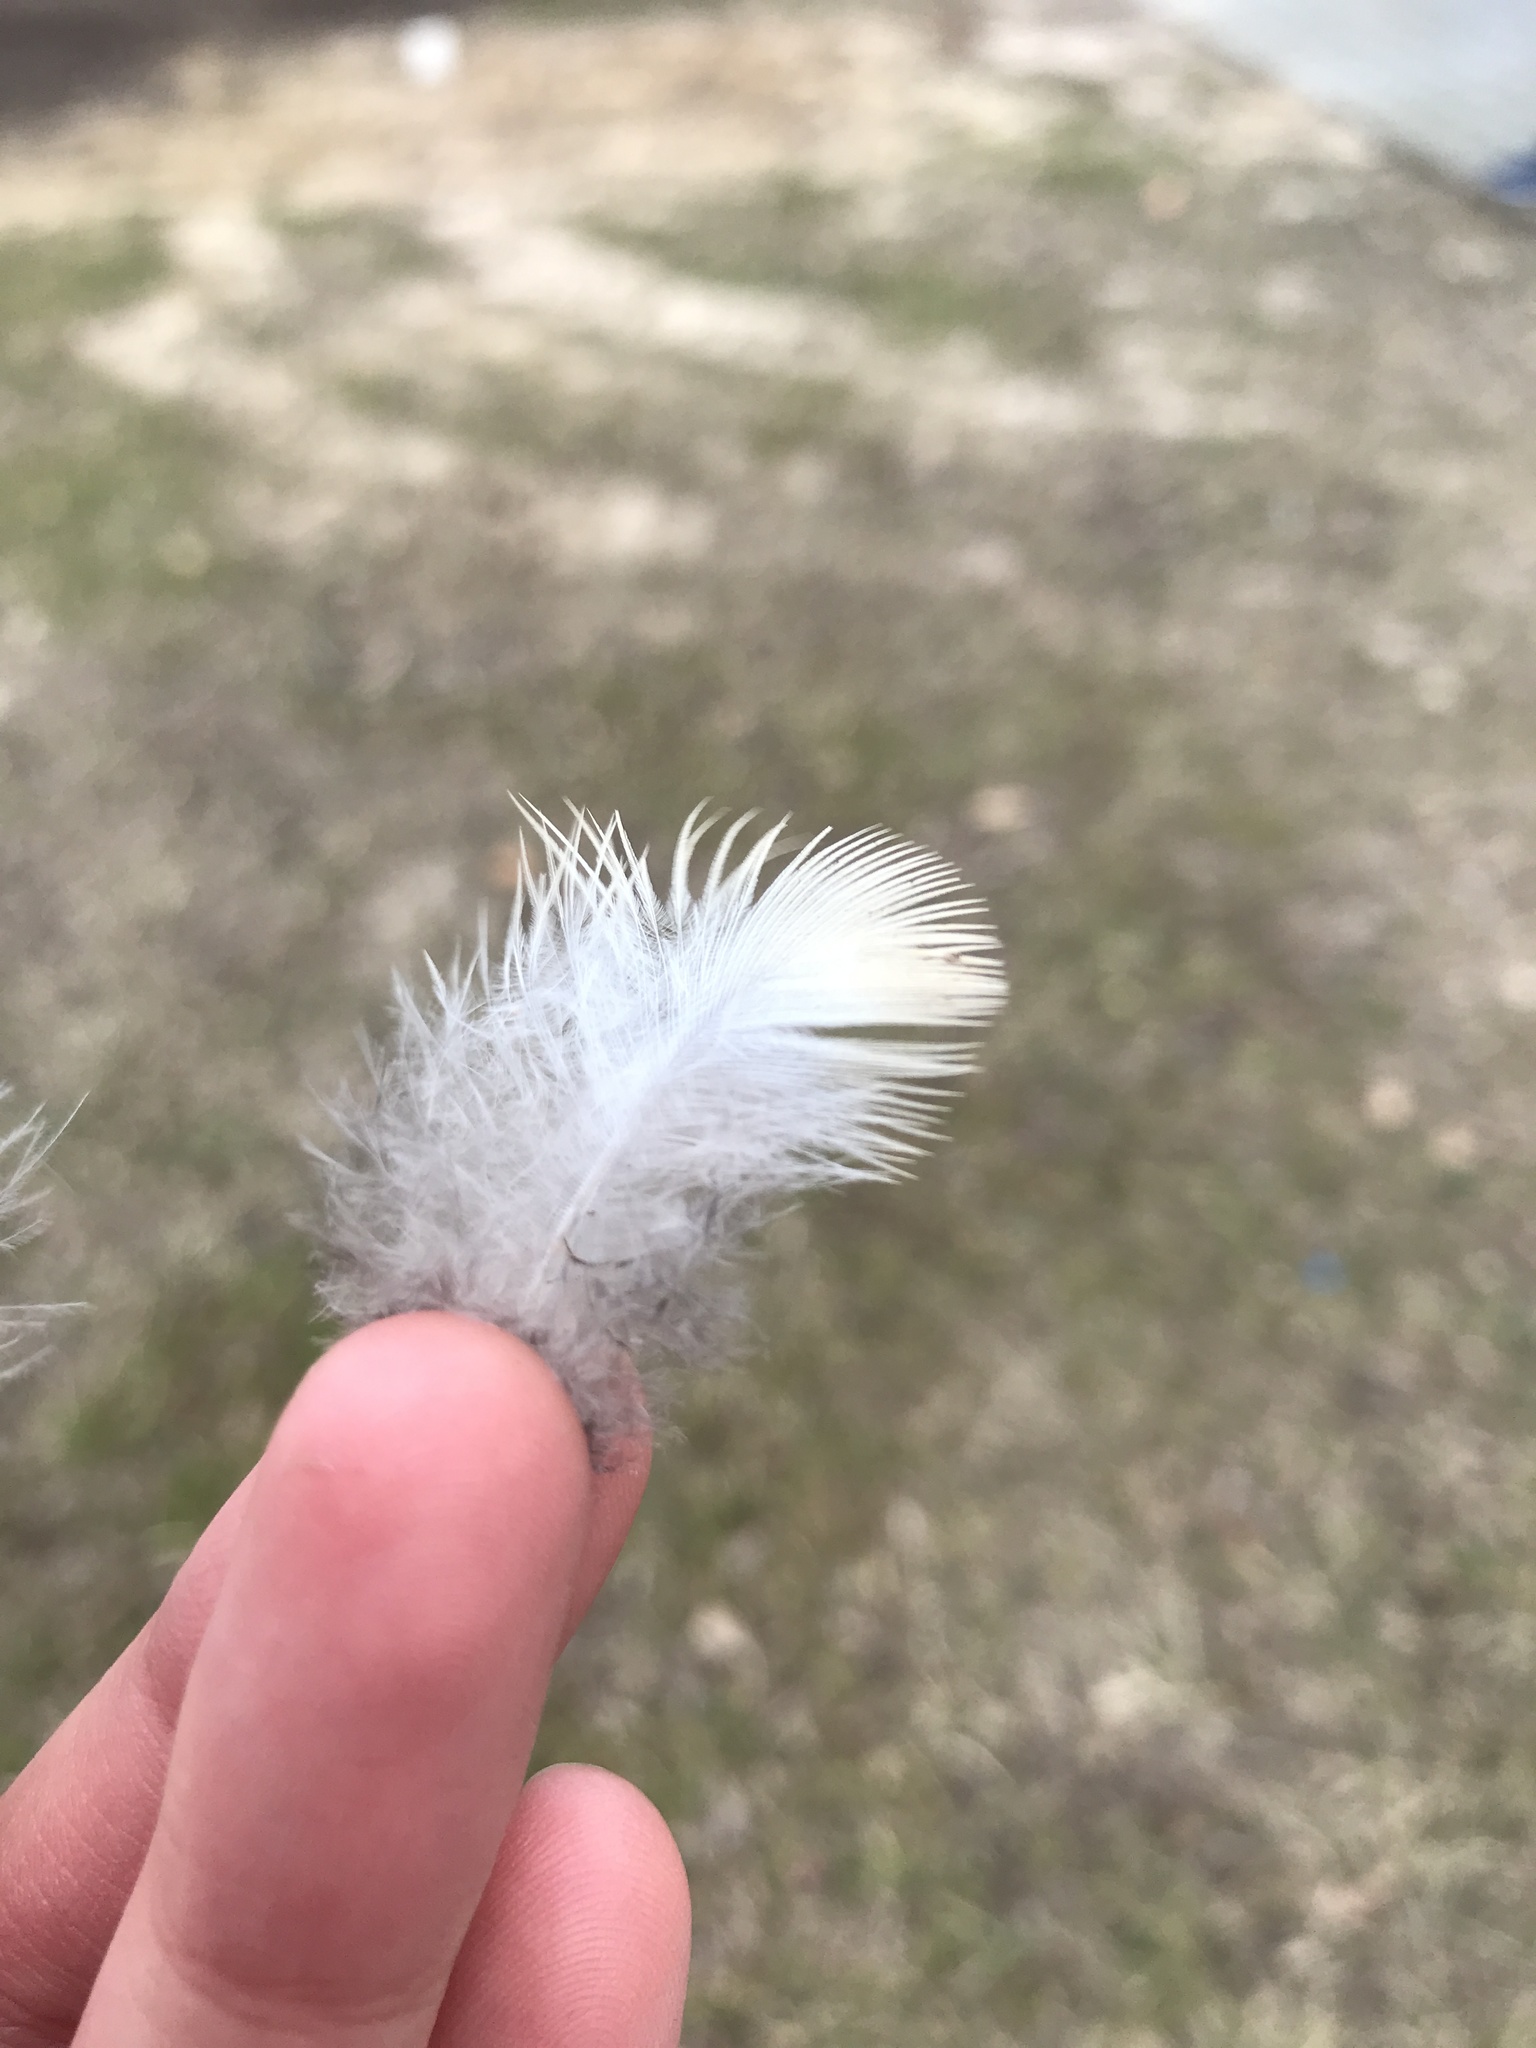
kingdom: Animalia
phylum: Chordata
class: Aves
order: Columbiformes
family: Columbidae
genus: Zenaida
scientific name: Zenaida macroura
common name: Mourning dove
